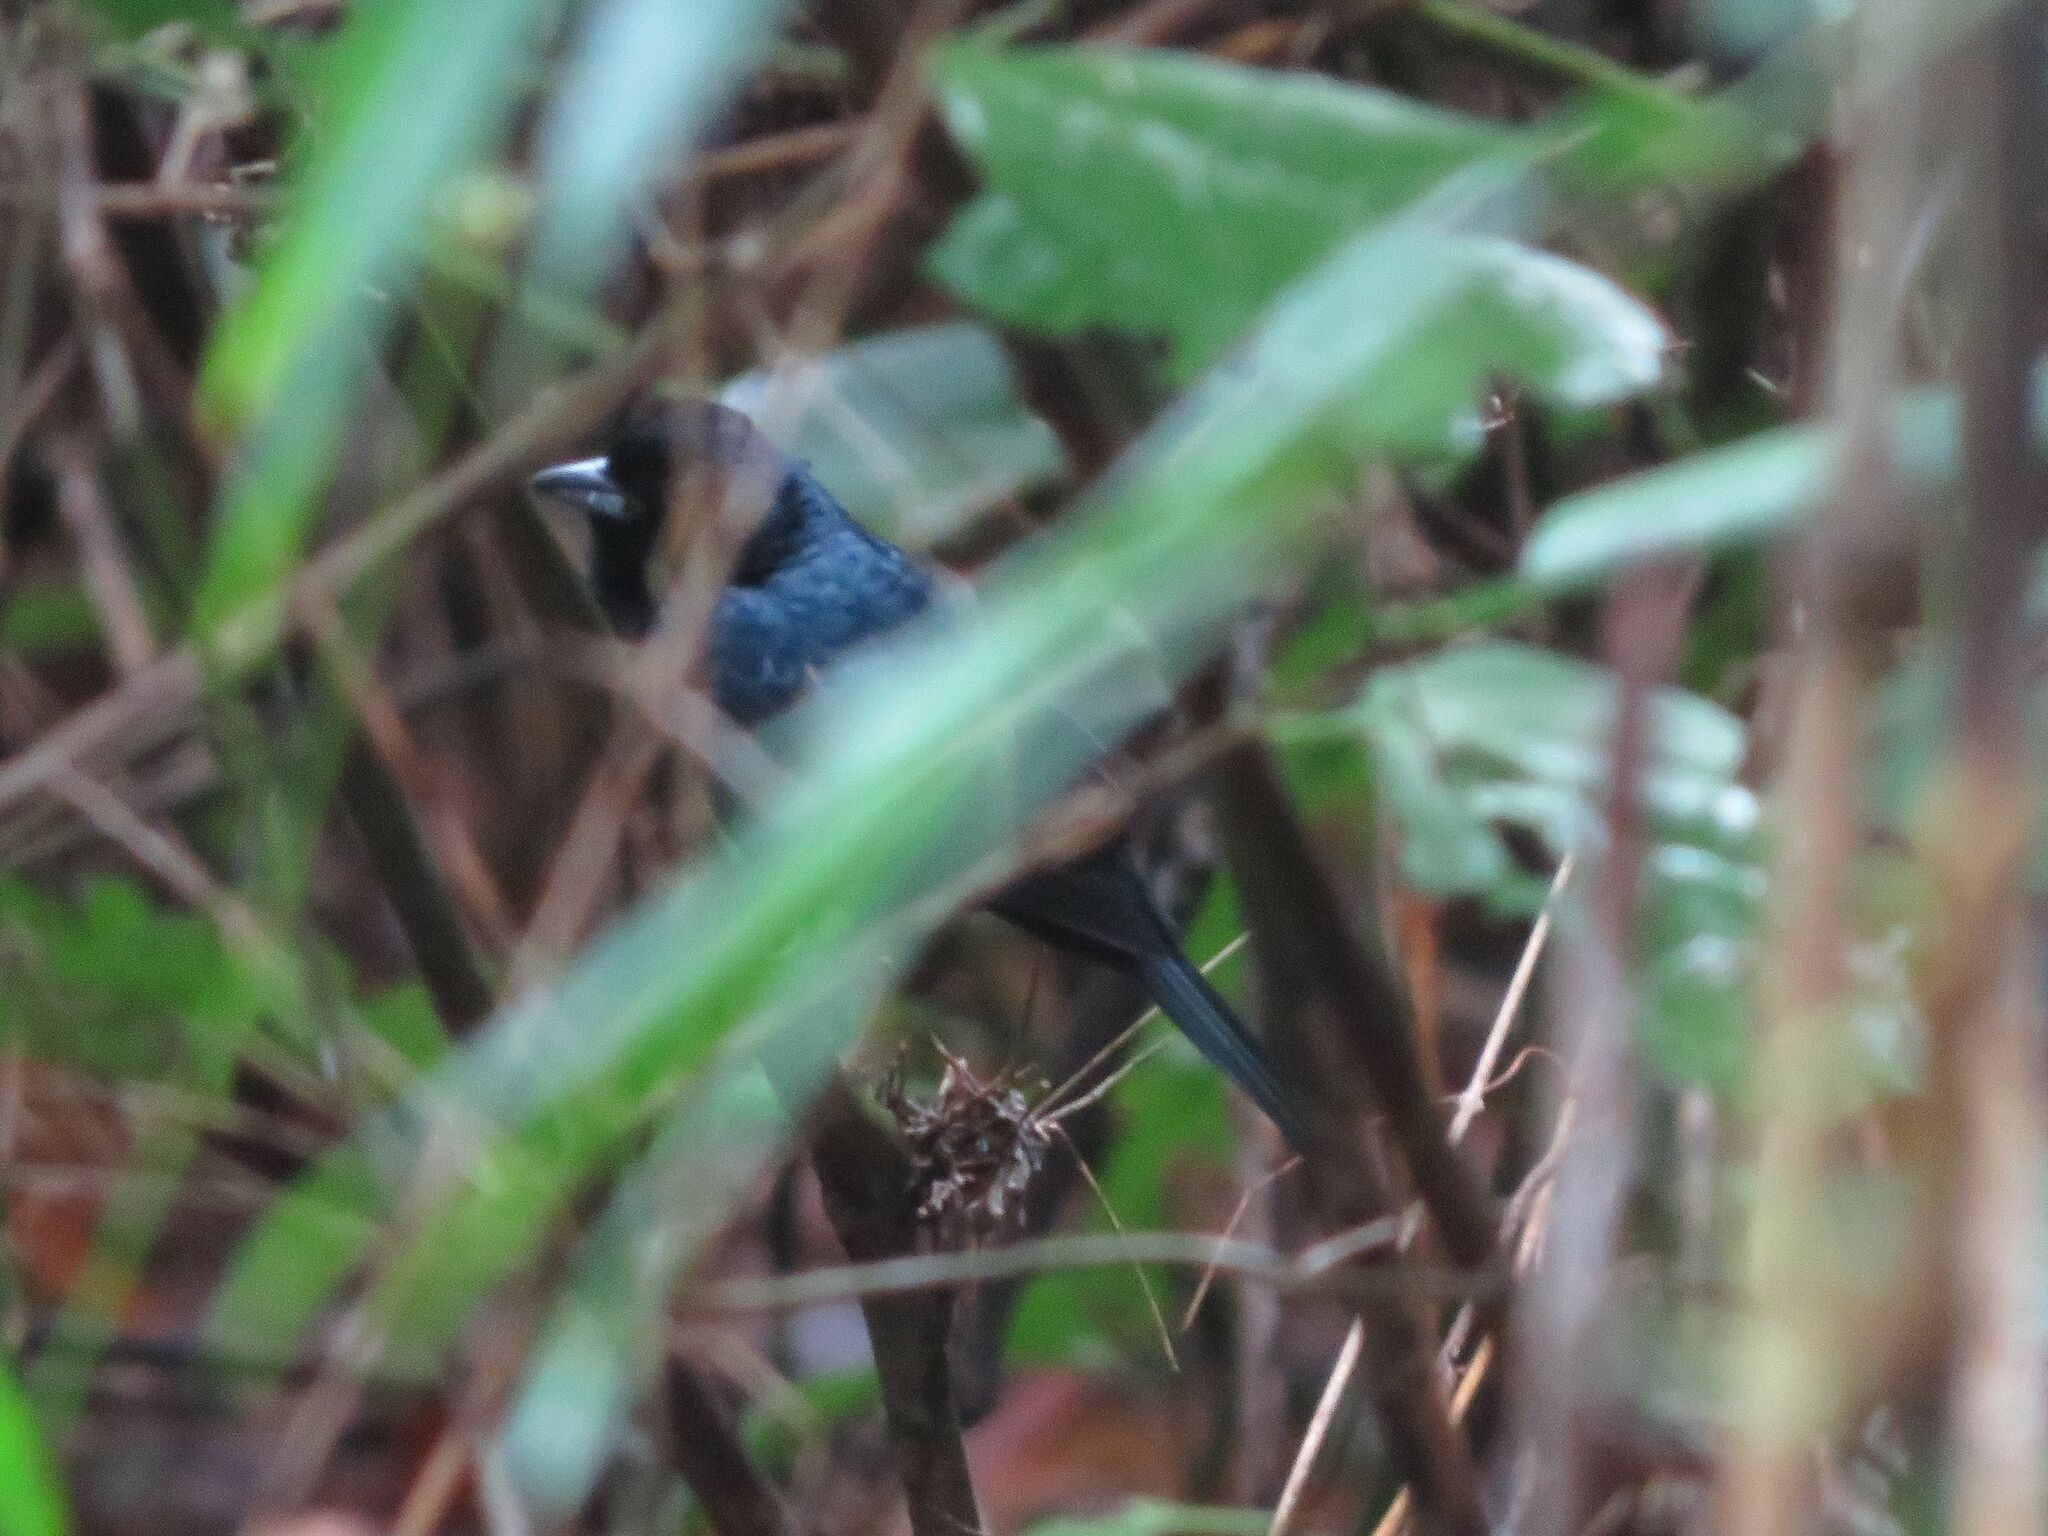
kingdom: Animalia
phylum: Chordata
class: Aves
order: Passeriformes
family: Thraupidae
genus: Tachyphonus
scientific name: Tachyphonus coronatus
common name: Ruby-crowned tanager
